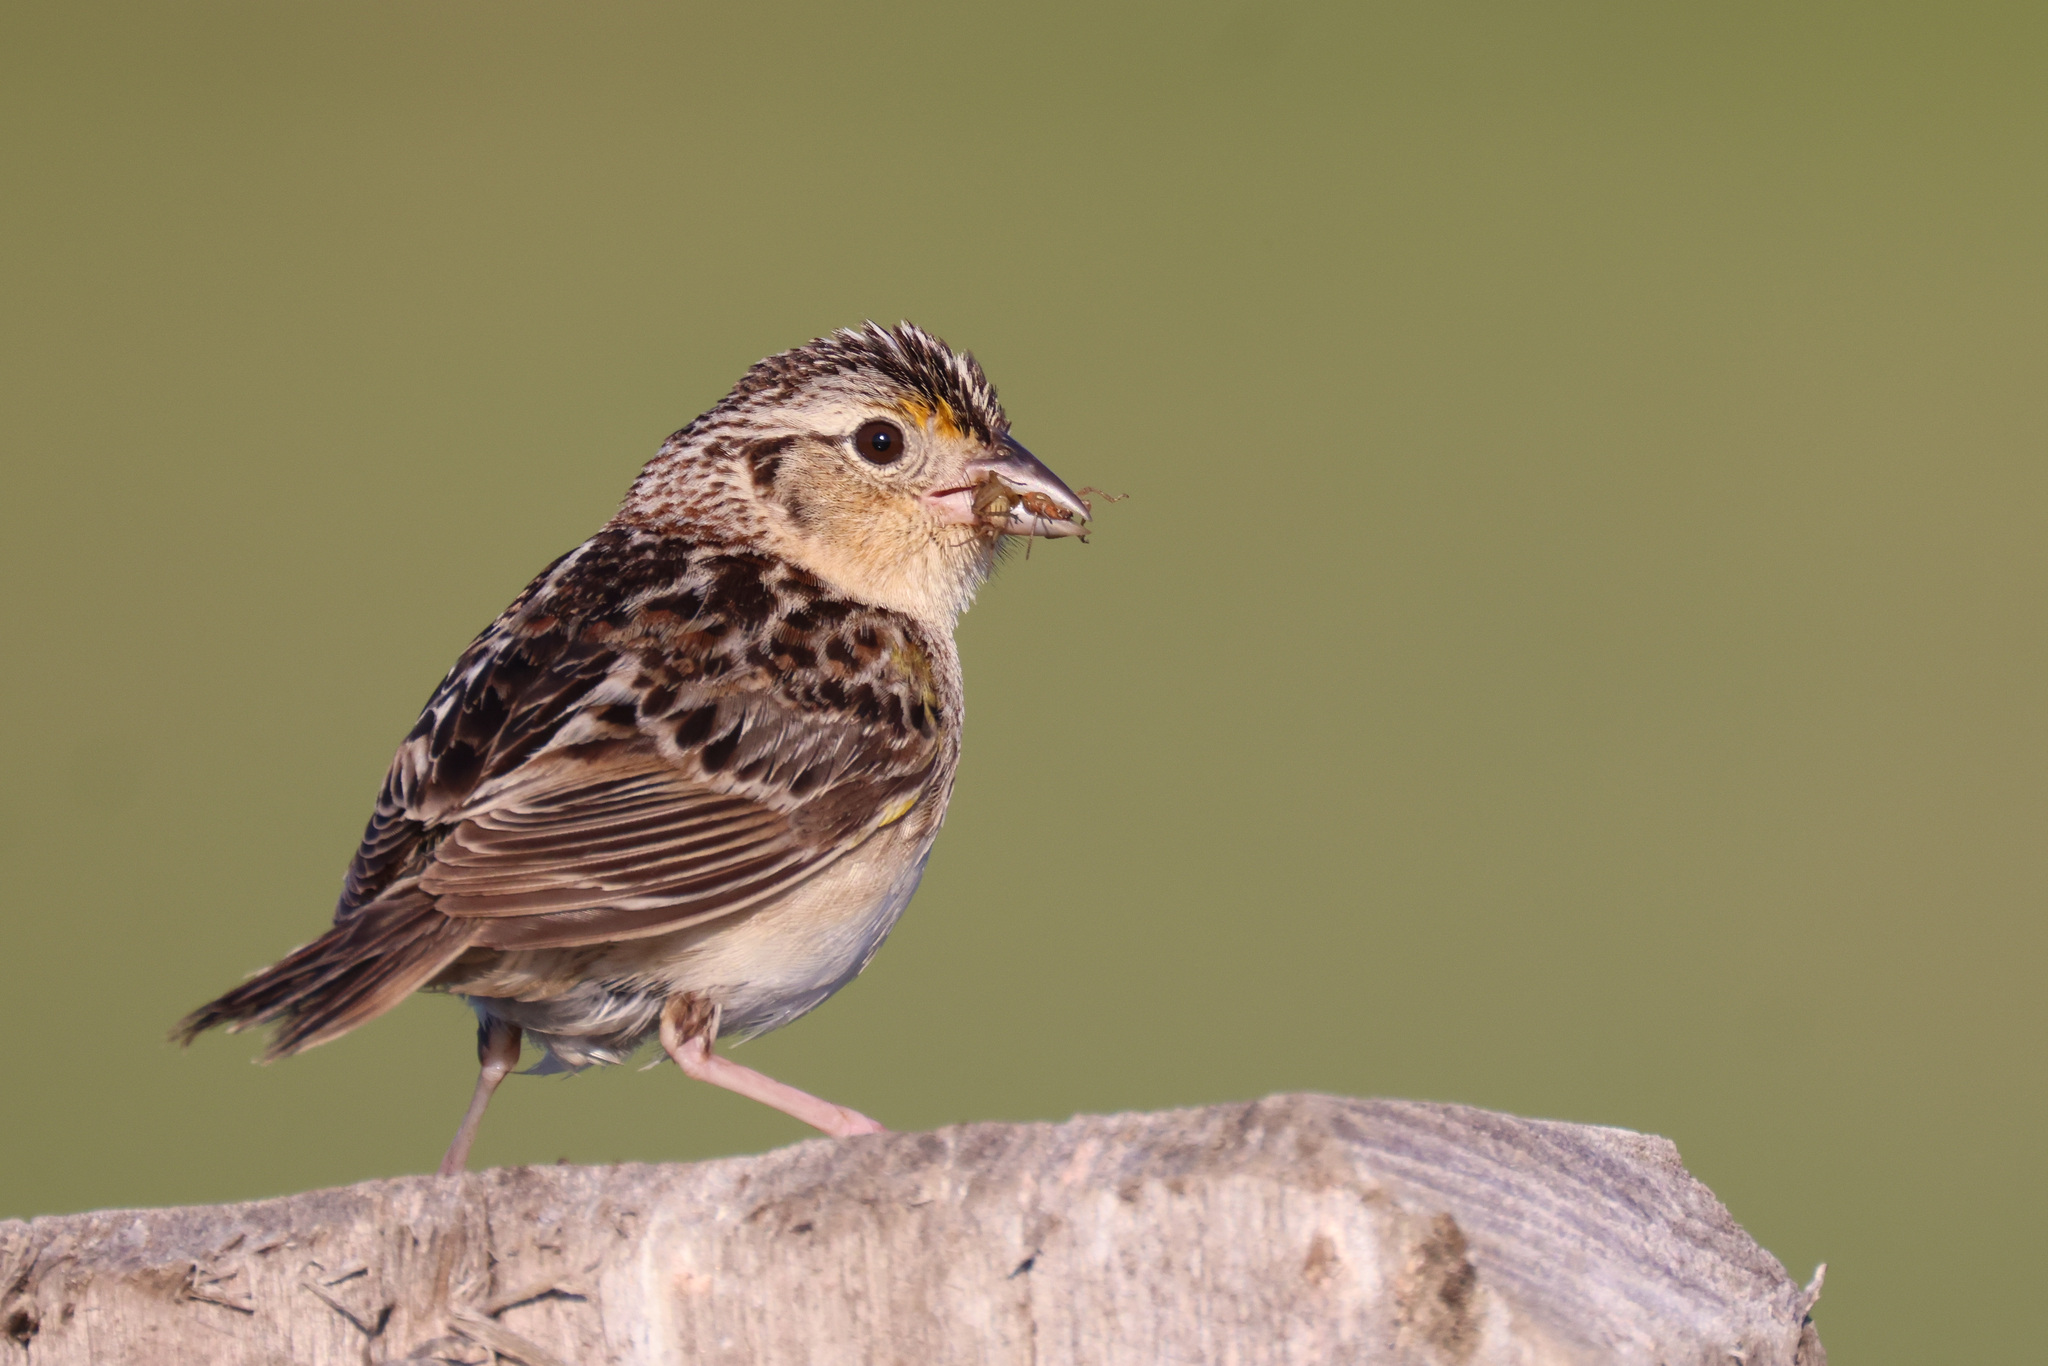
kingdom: Animalia
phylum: Chordata
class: Aves
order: Passeriformes
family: Passerellidae
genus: Ammodramus
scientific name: Ammodramus savannarum
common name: Grasshopper sparrow
